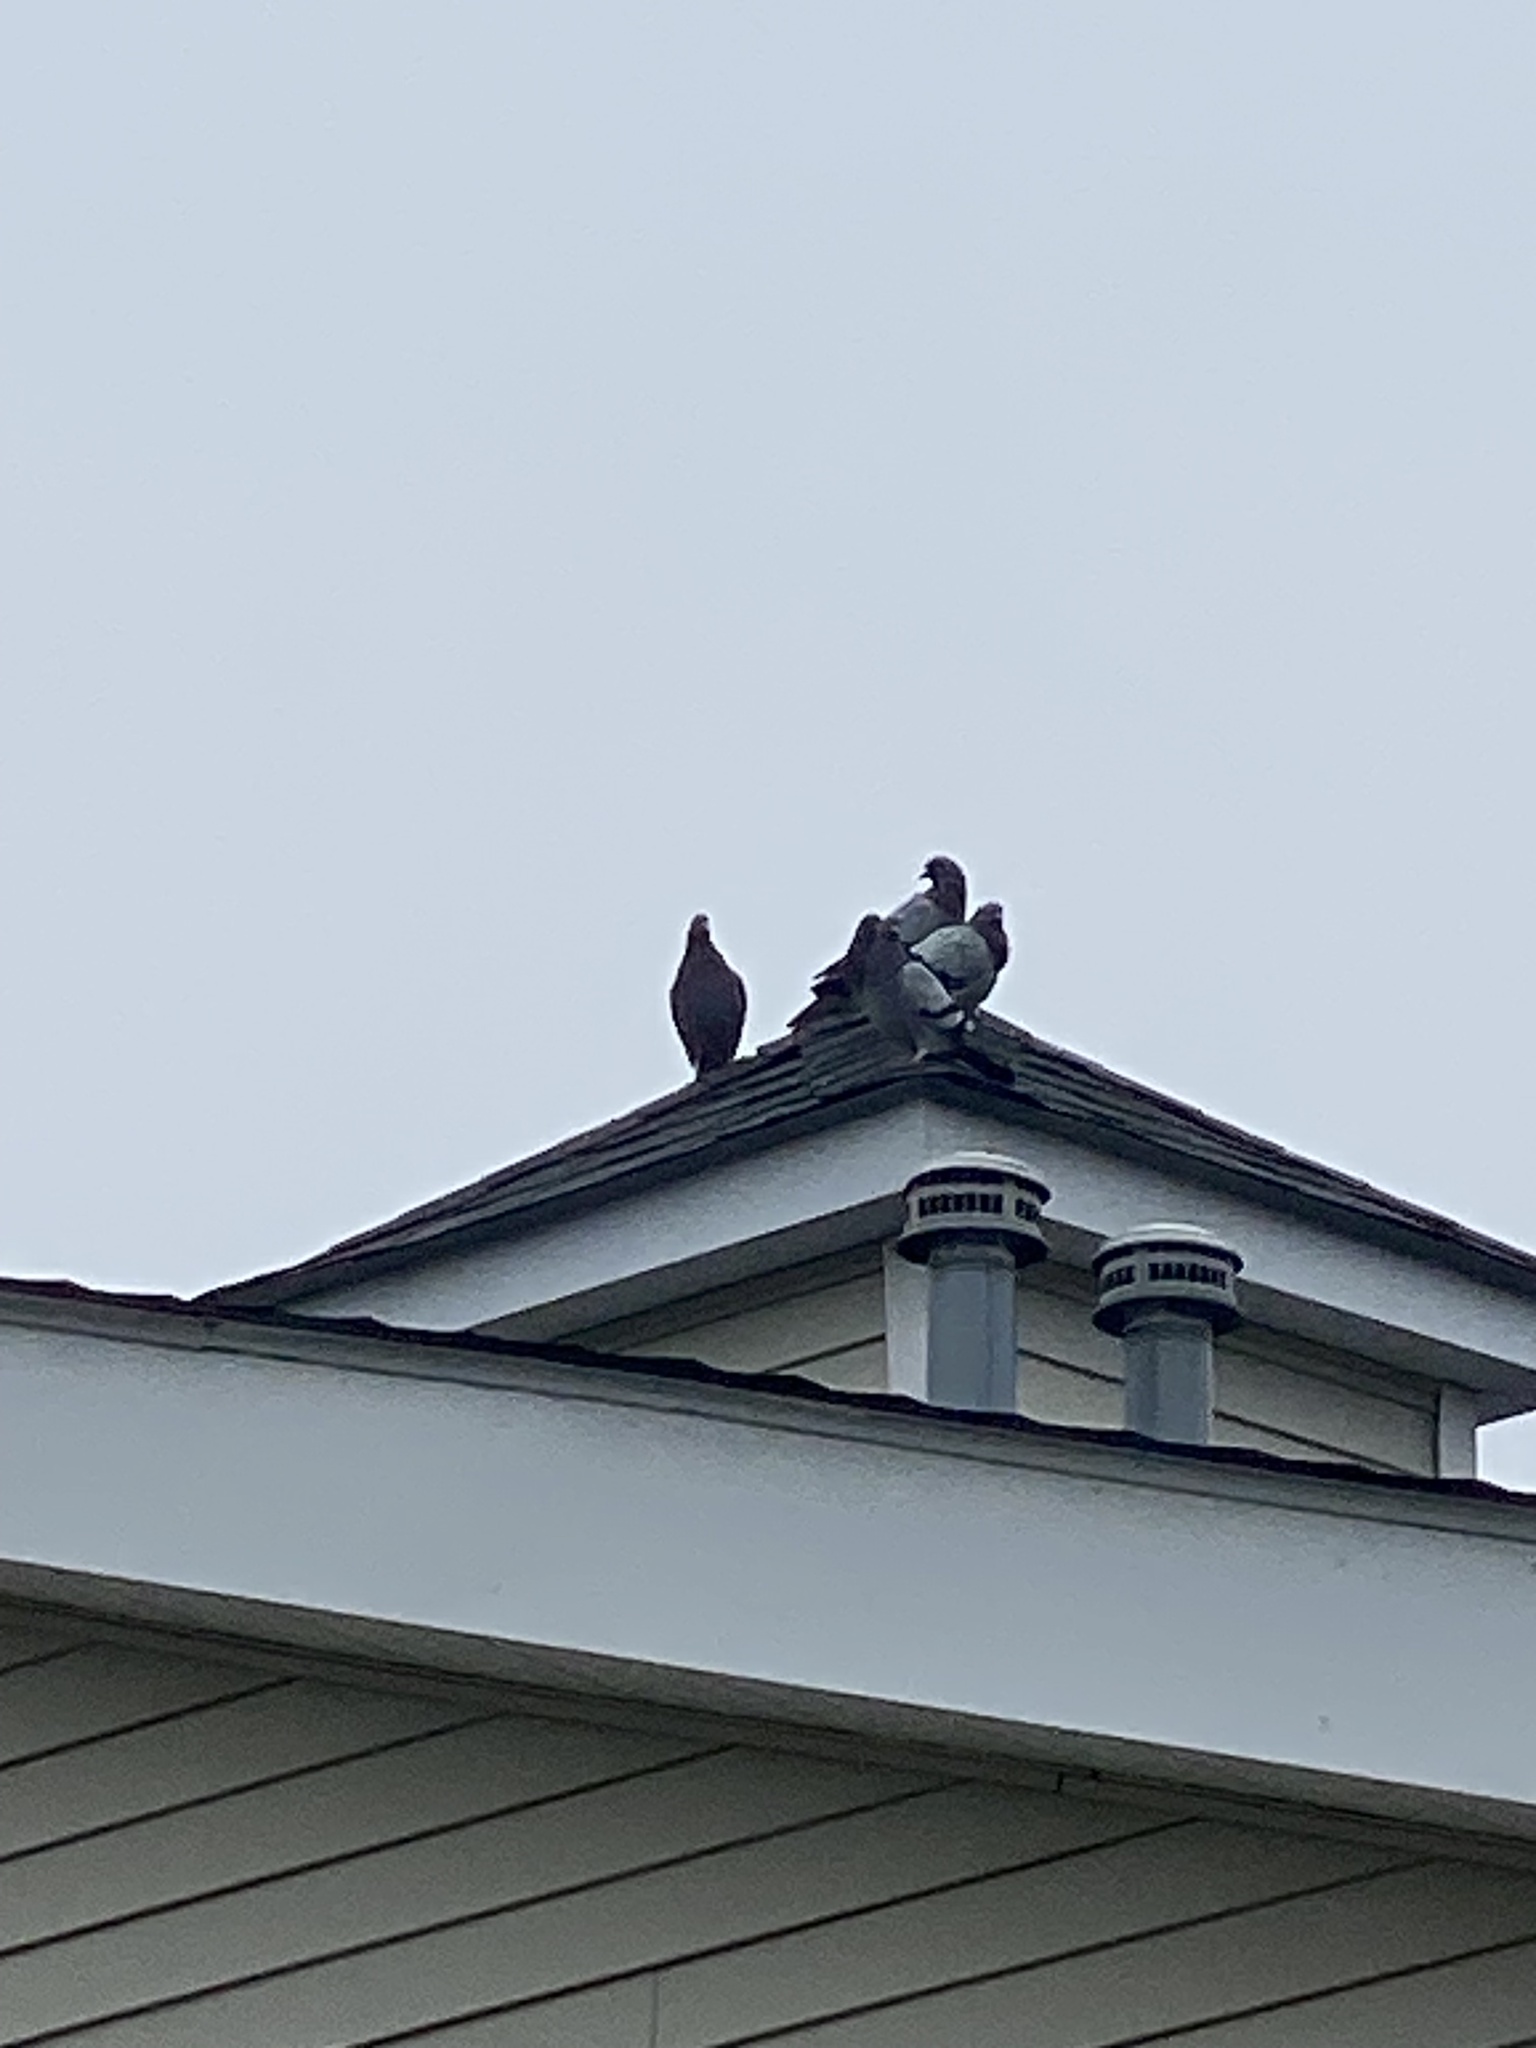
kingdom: Animalia
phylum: Chordata
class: Aves
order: Columbiformes
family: Columbidae
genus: Columba
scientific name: Columba livia
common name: Rock pigeon
